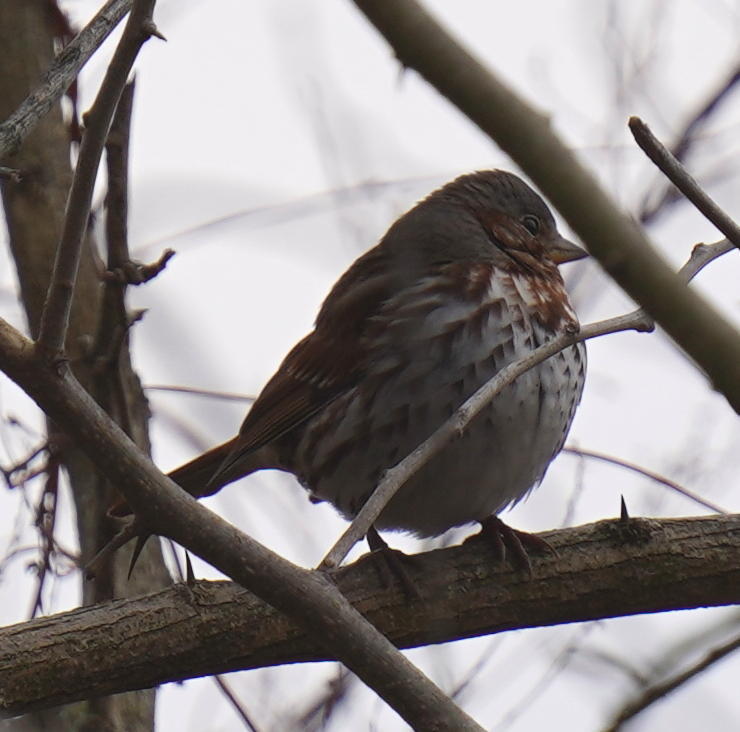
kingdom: Animalia
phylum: Chordata
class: Aves
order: Passeriformes
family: Passerellidae
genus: Passerella
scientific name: Passerella iliaca
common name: Fox sparrow
